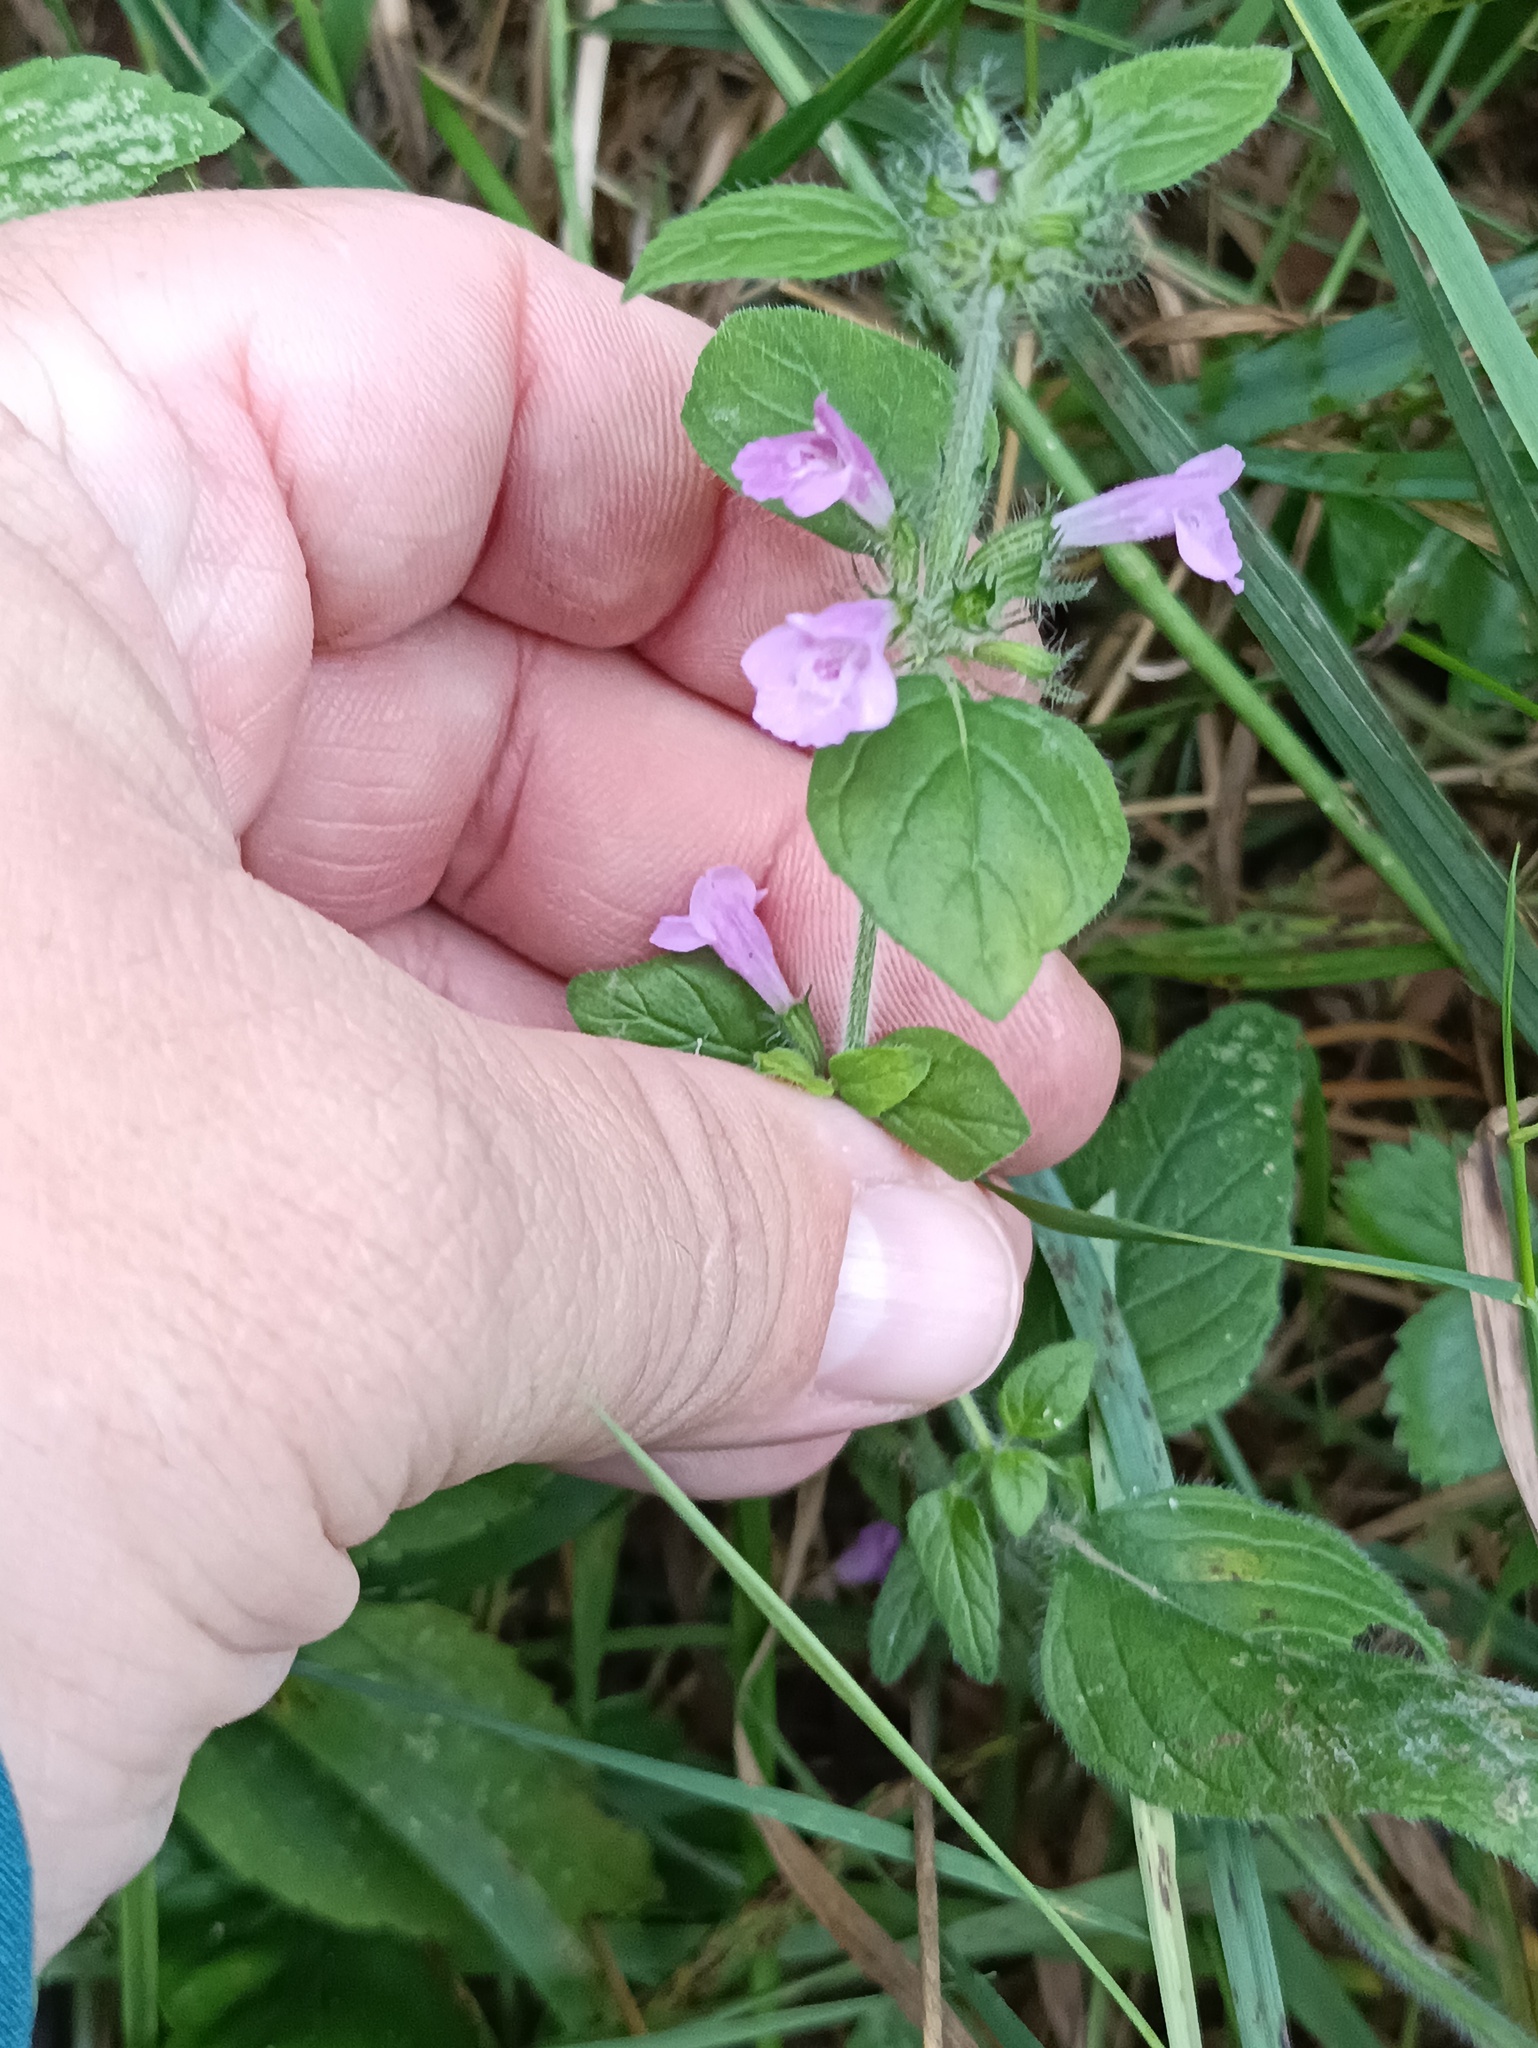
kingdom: Plantae
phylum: Tracheophyta
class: Magnoliopsida
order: Lamiales
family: Lamiaceae
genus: Clinopodium
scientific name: Clinopodium vulgare
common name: Wild basil
